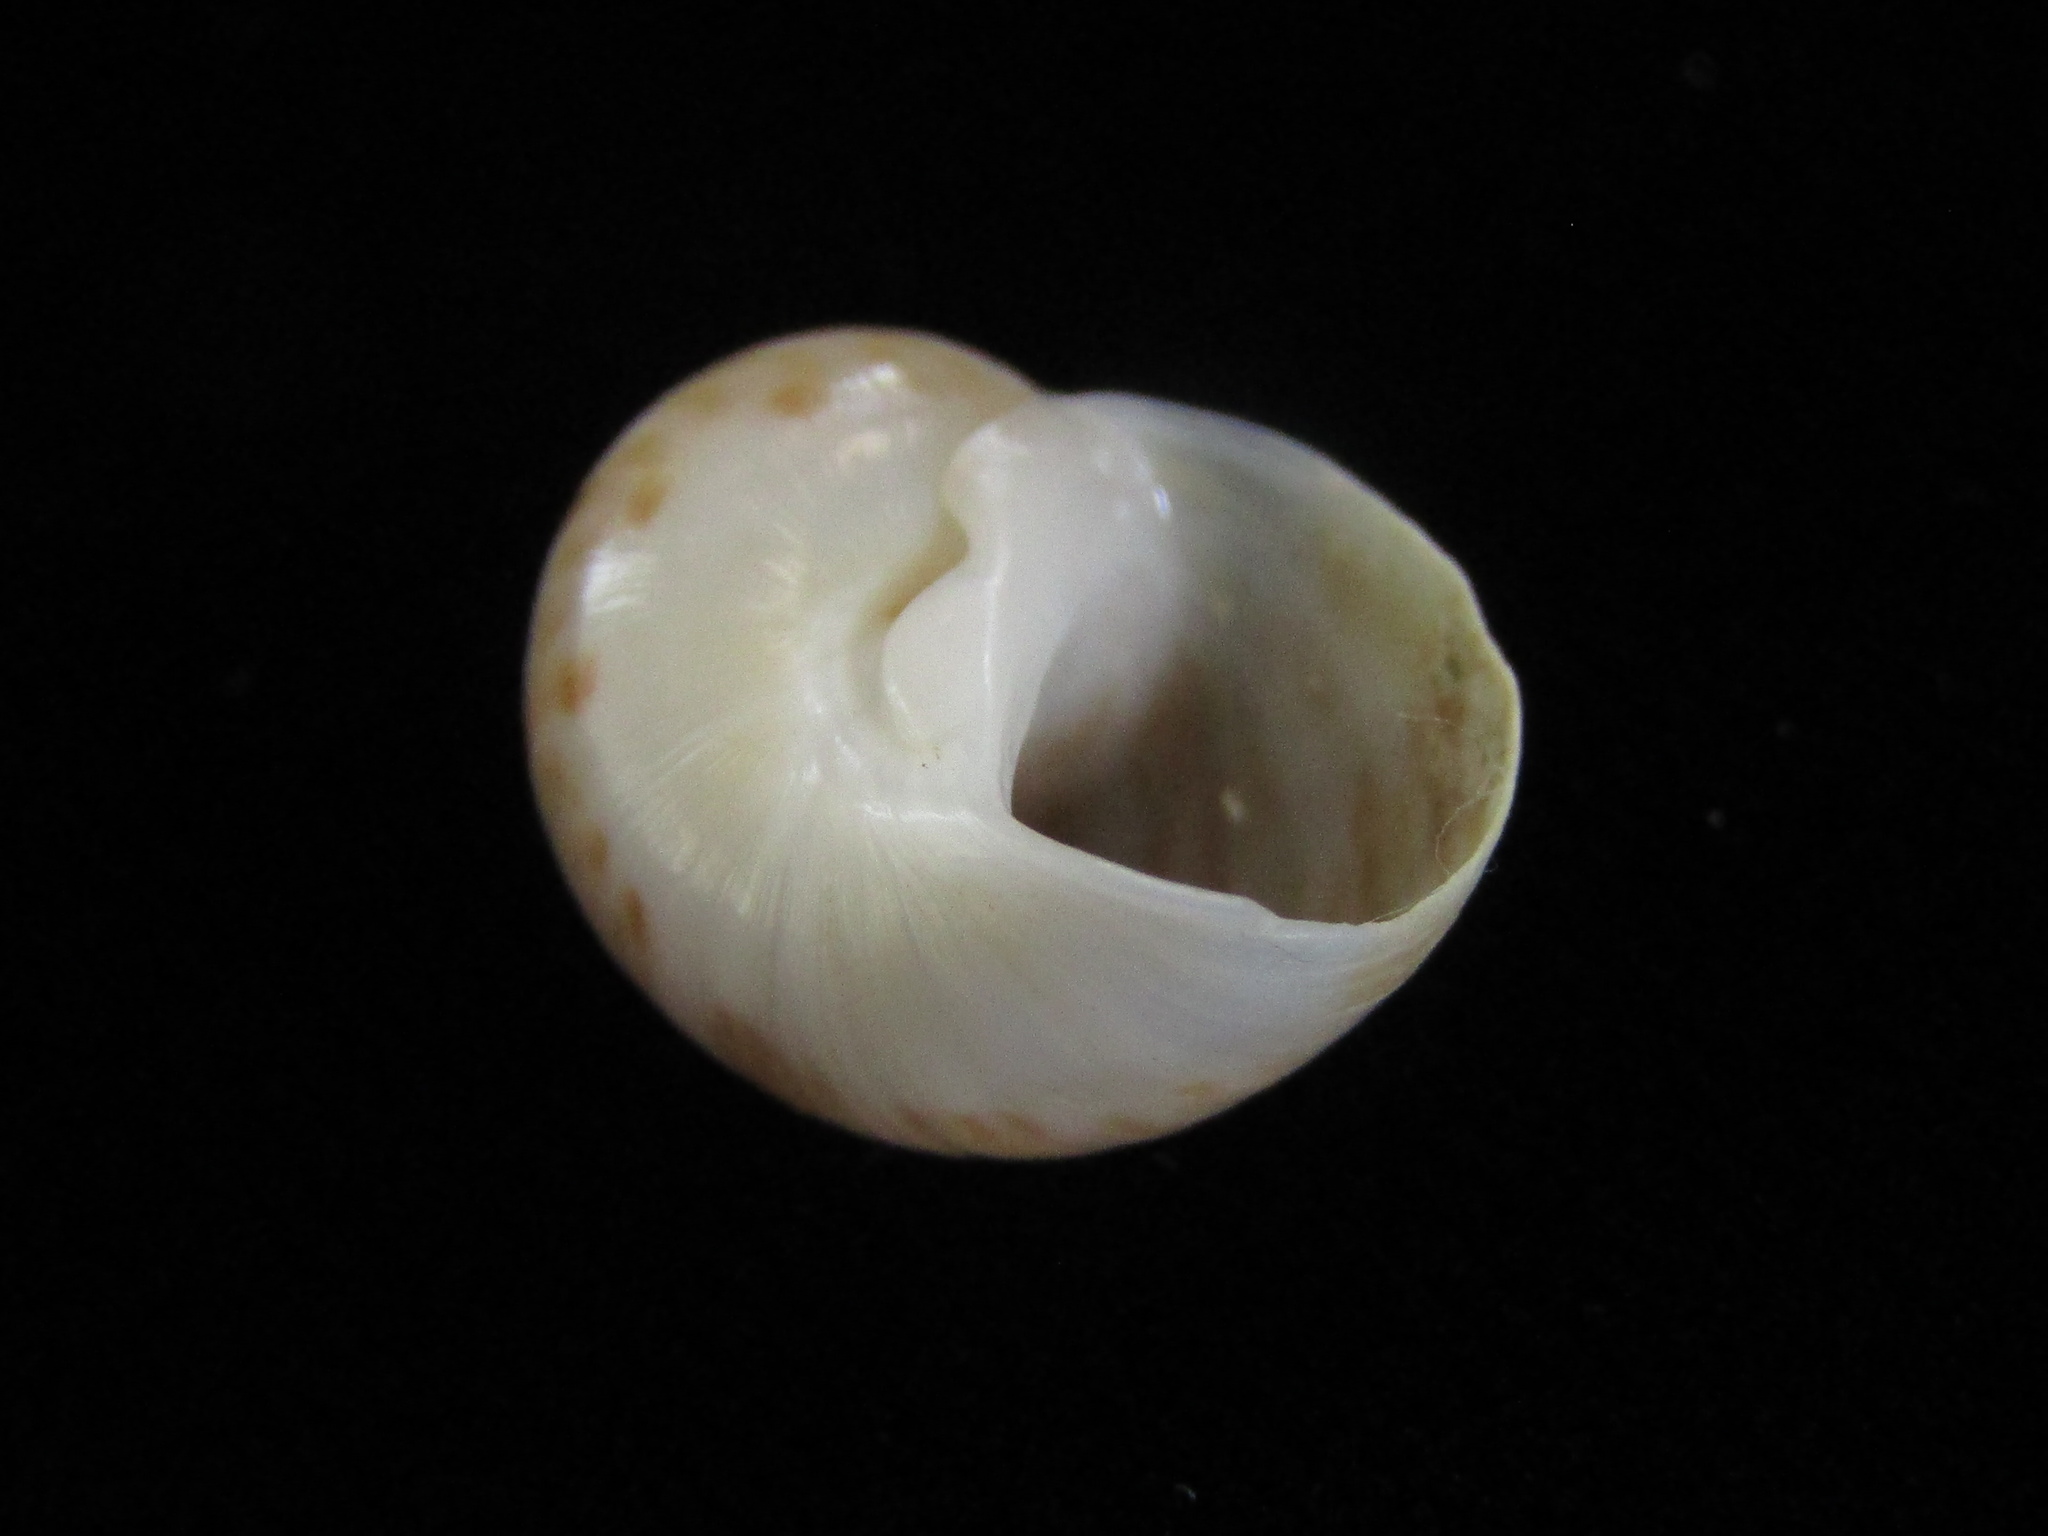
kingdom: Animalia
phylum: Mollusca
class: Gastropoda
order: Littorinimorpha
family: Naticidae
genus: Notocochlis
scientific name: Notocochlis cernica
